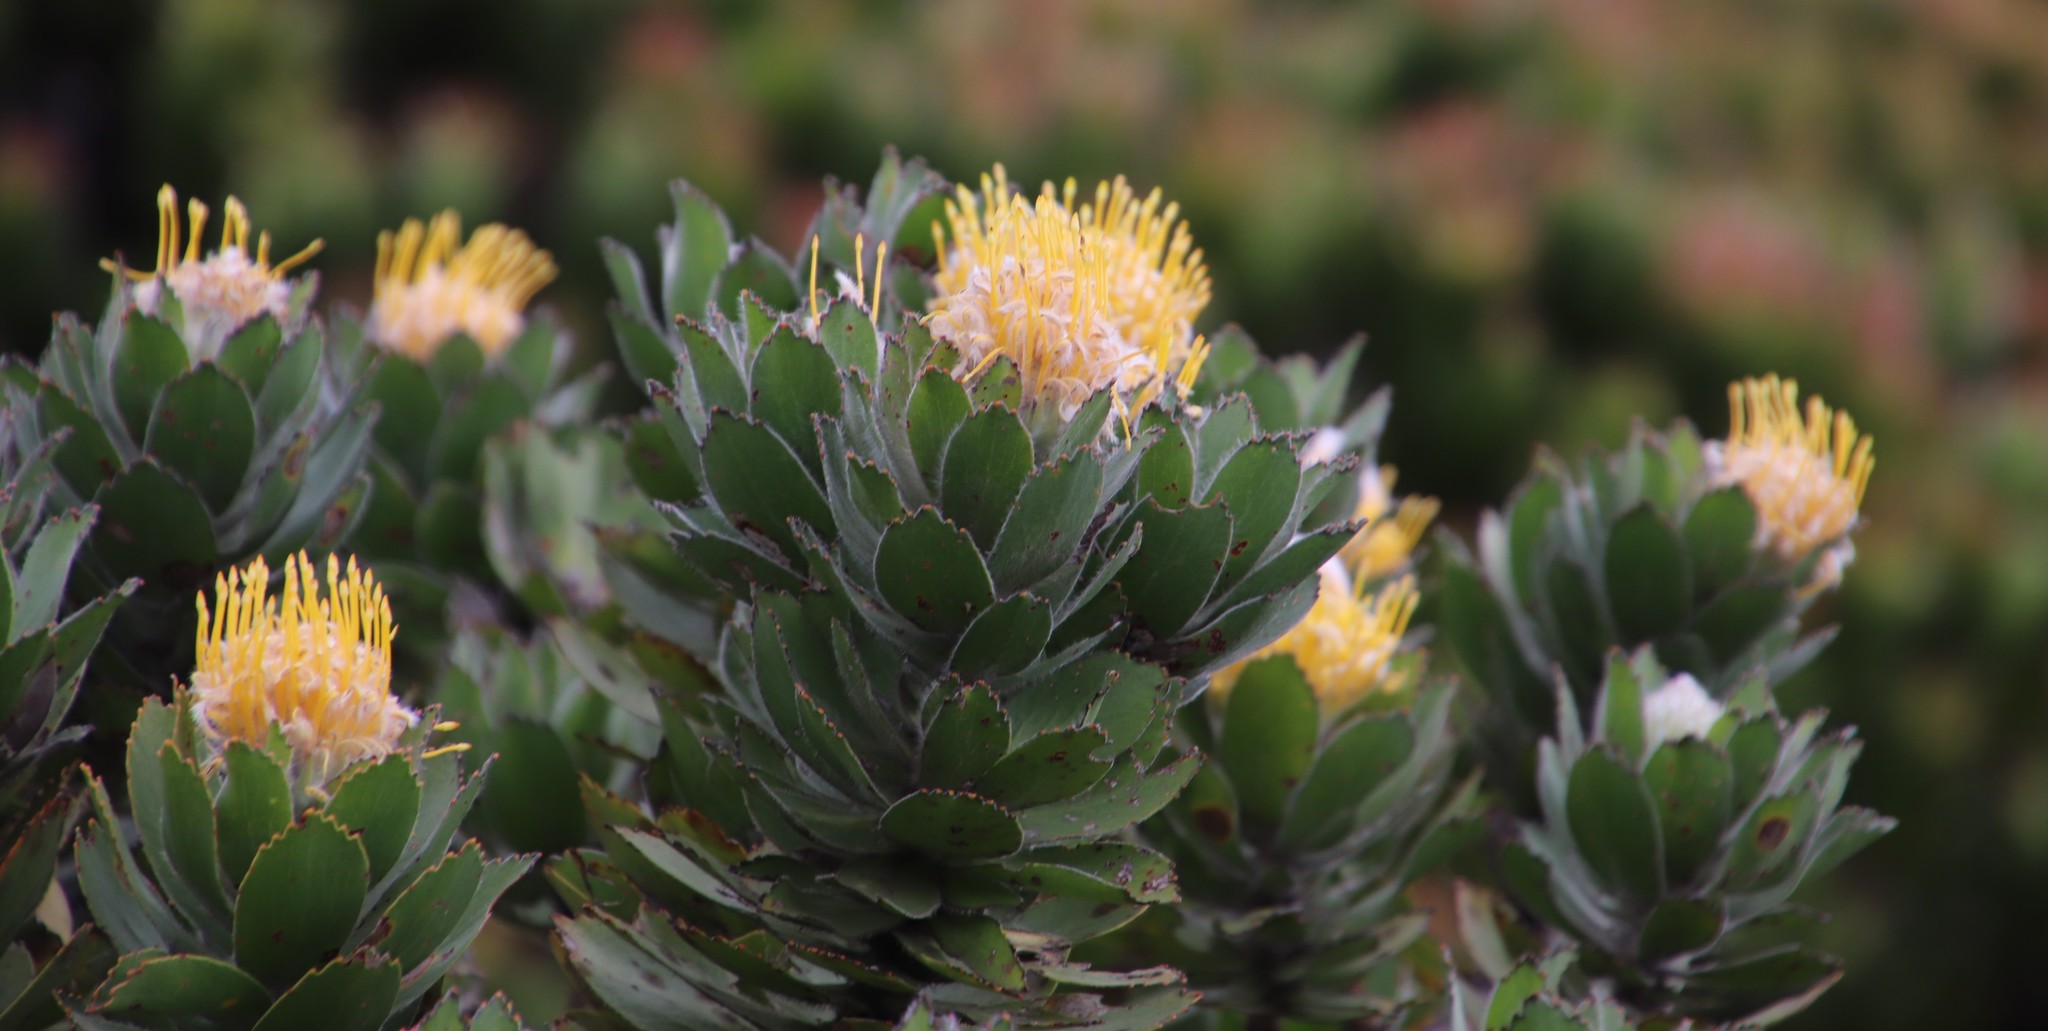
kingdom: Plantae
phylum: Tracheophyta
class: Magnoliopsida
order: Proteales
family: Proteaceae
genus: Leucospermum
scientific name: Leucospermum conocarpodendron
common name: Tree pincushion
